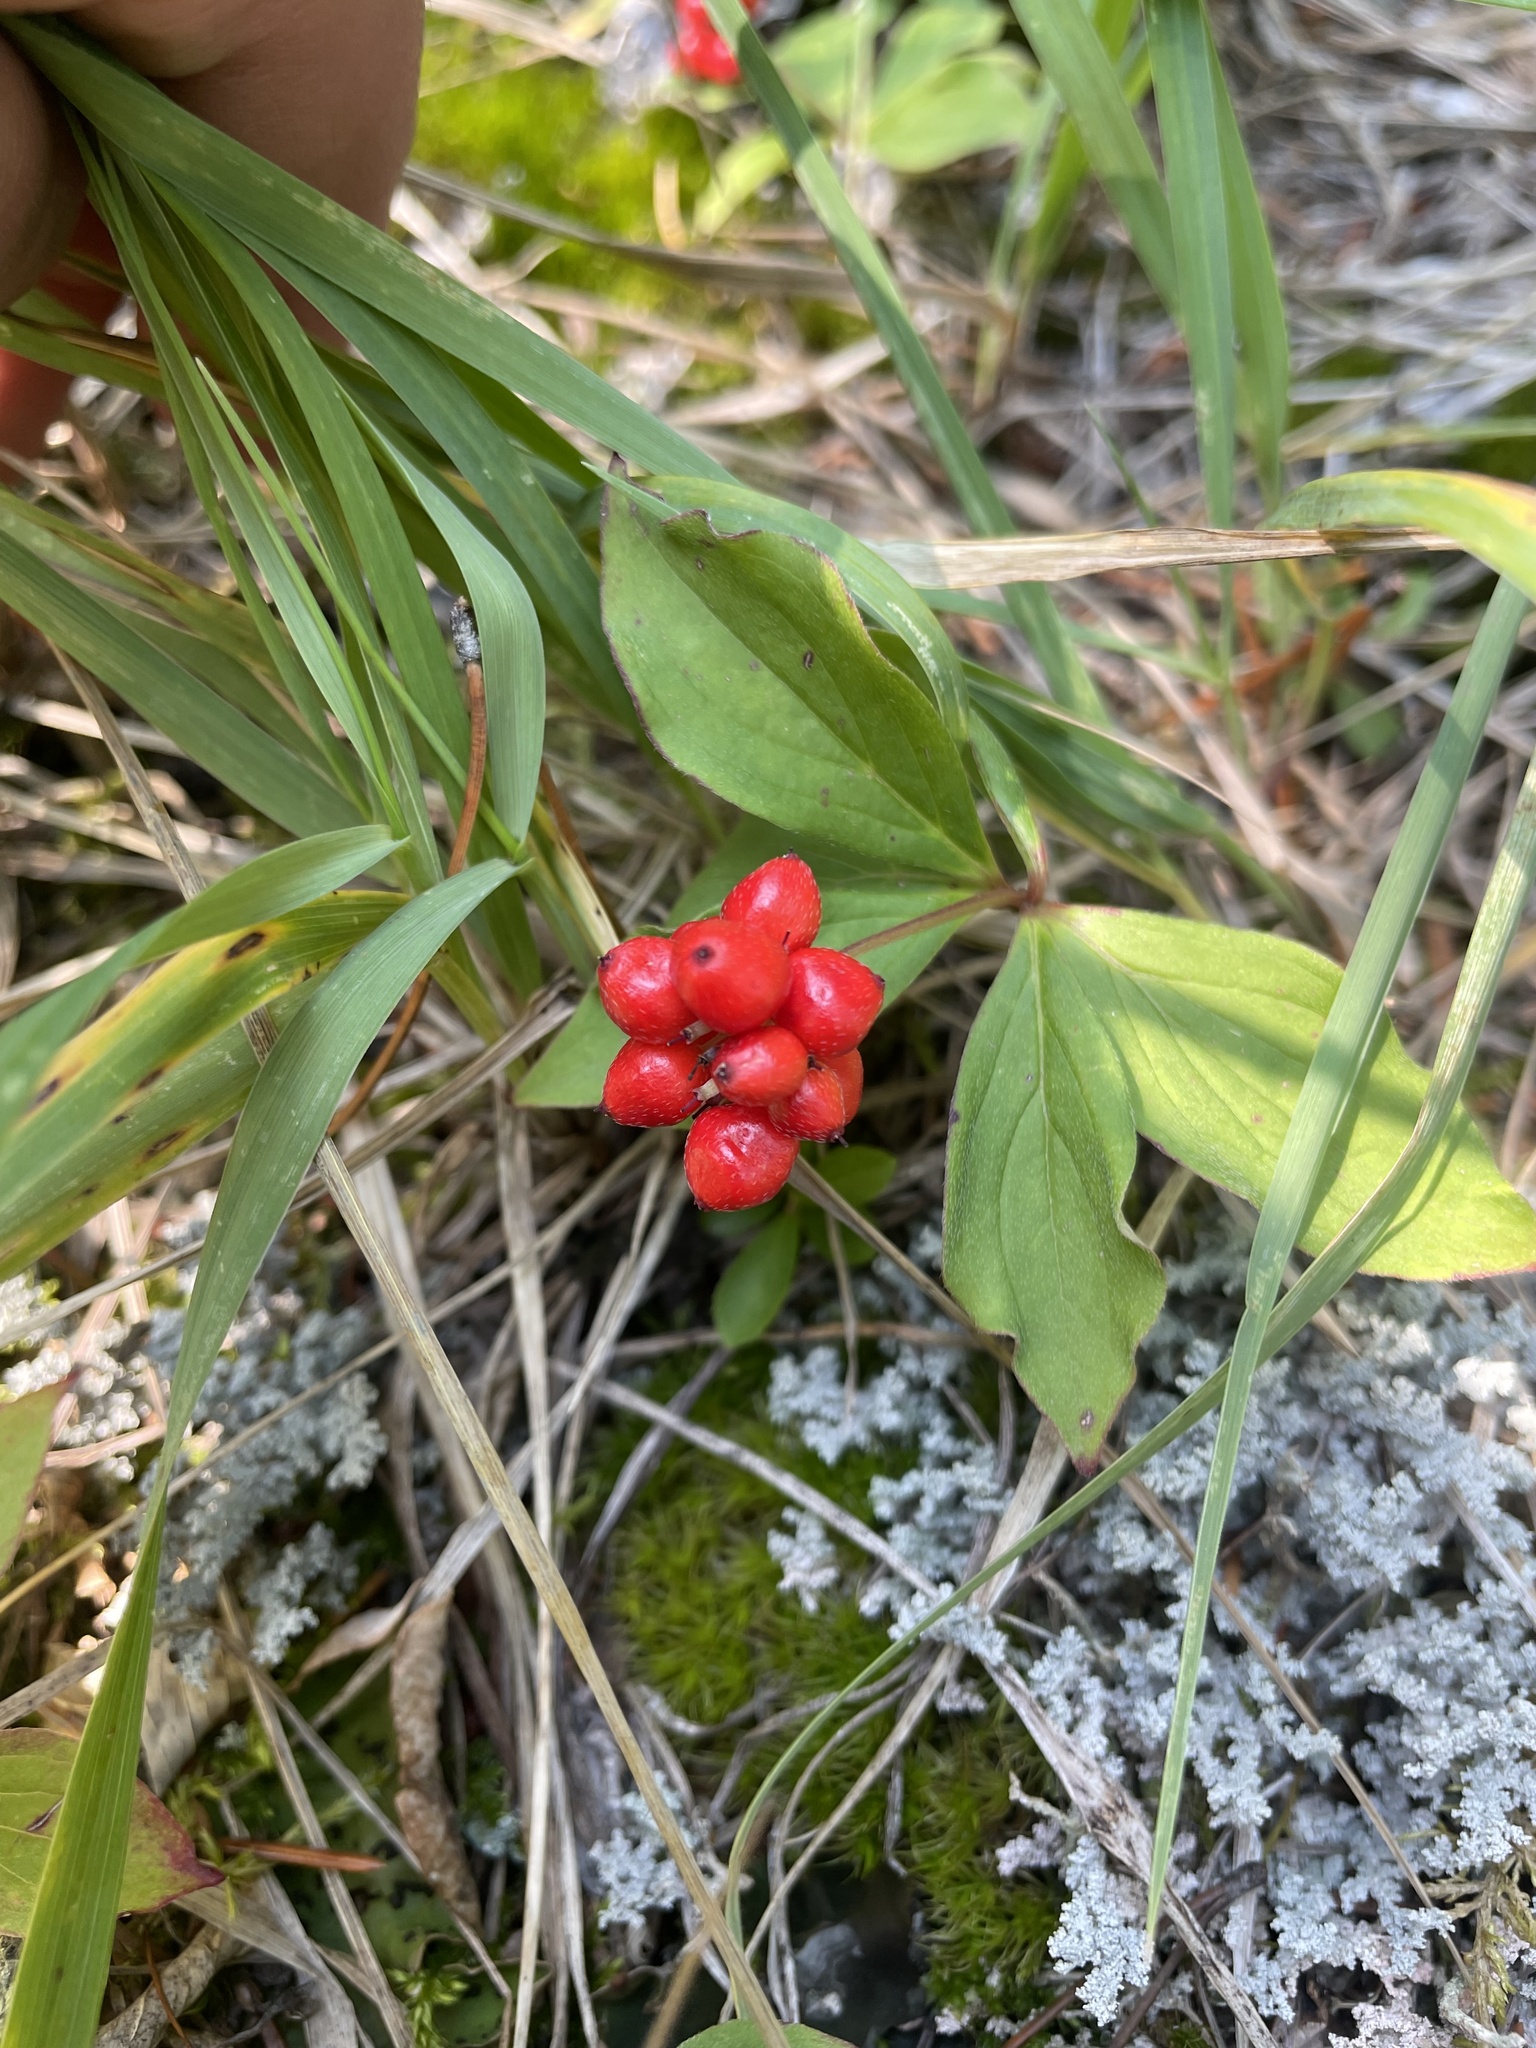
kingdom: Plantae
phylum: Tracheophyta
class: Magnoliopsida
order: Cornales
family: Cornaceae
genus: Cornus
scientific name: Cornus canadensis
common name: Creeping dogwood
